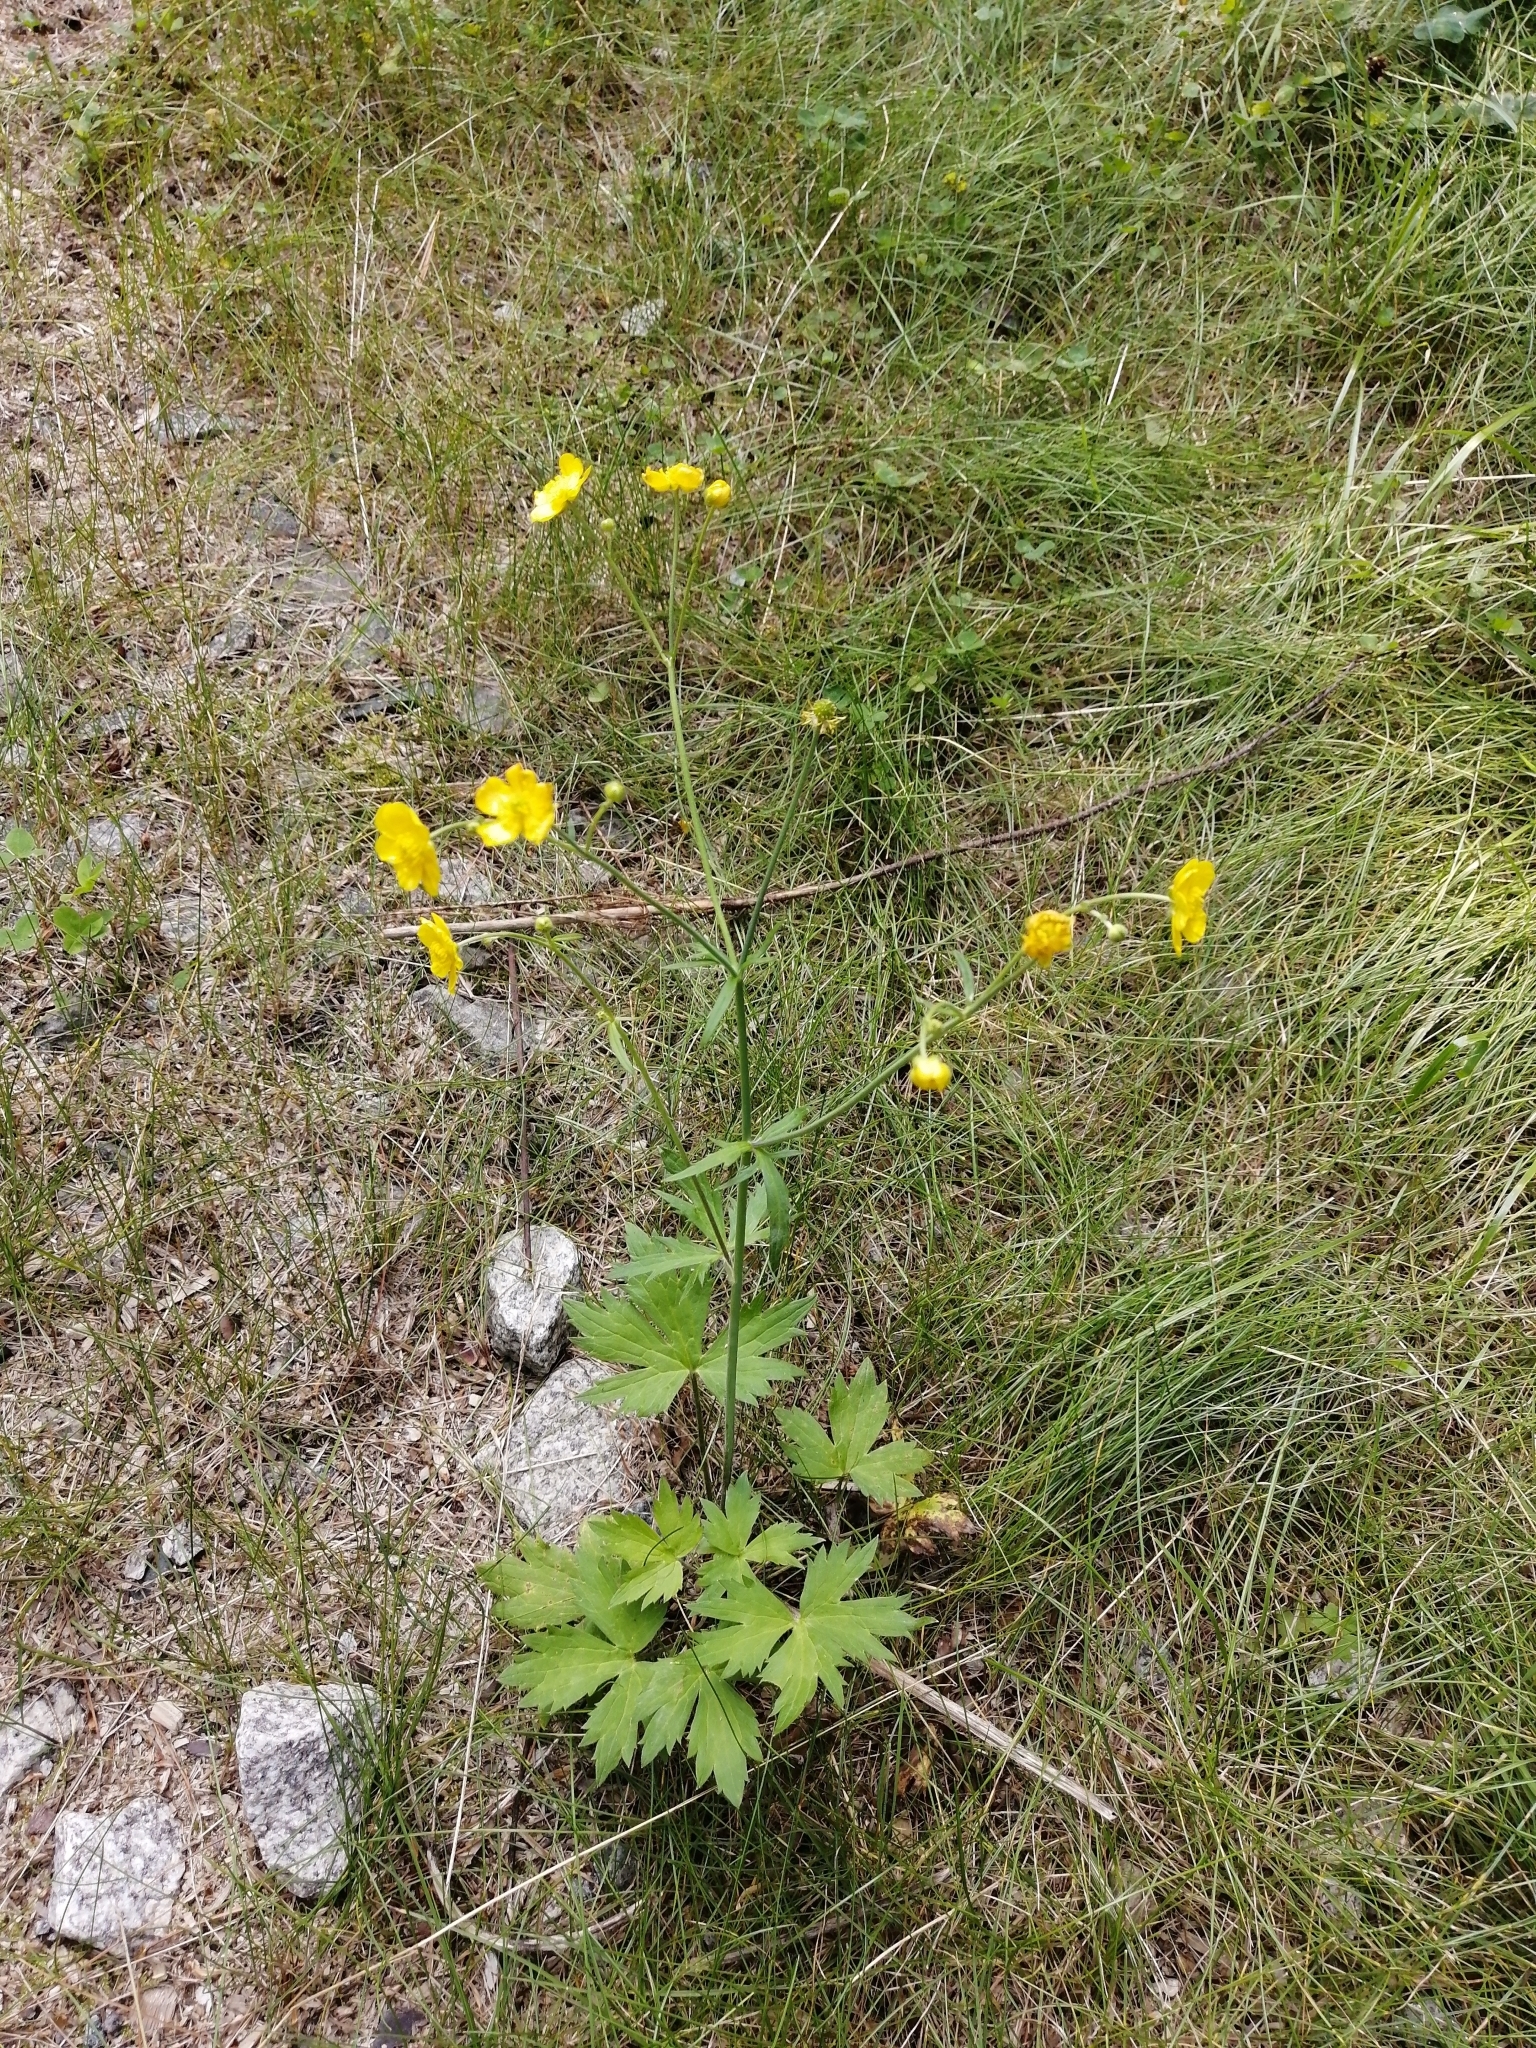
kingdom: Plantae
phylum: Tracheophyta
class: Magnoliopsida
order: Ranunculales
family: Ranunculaceae
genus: Ranunculus
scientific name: Ranunculus propinquus
